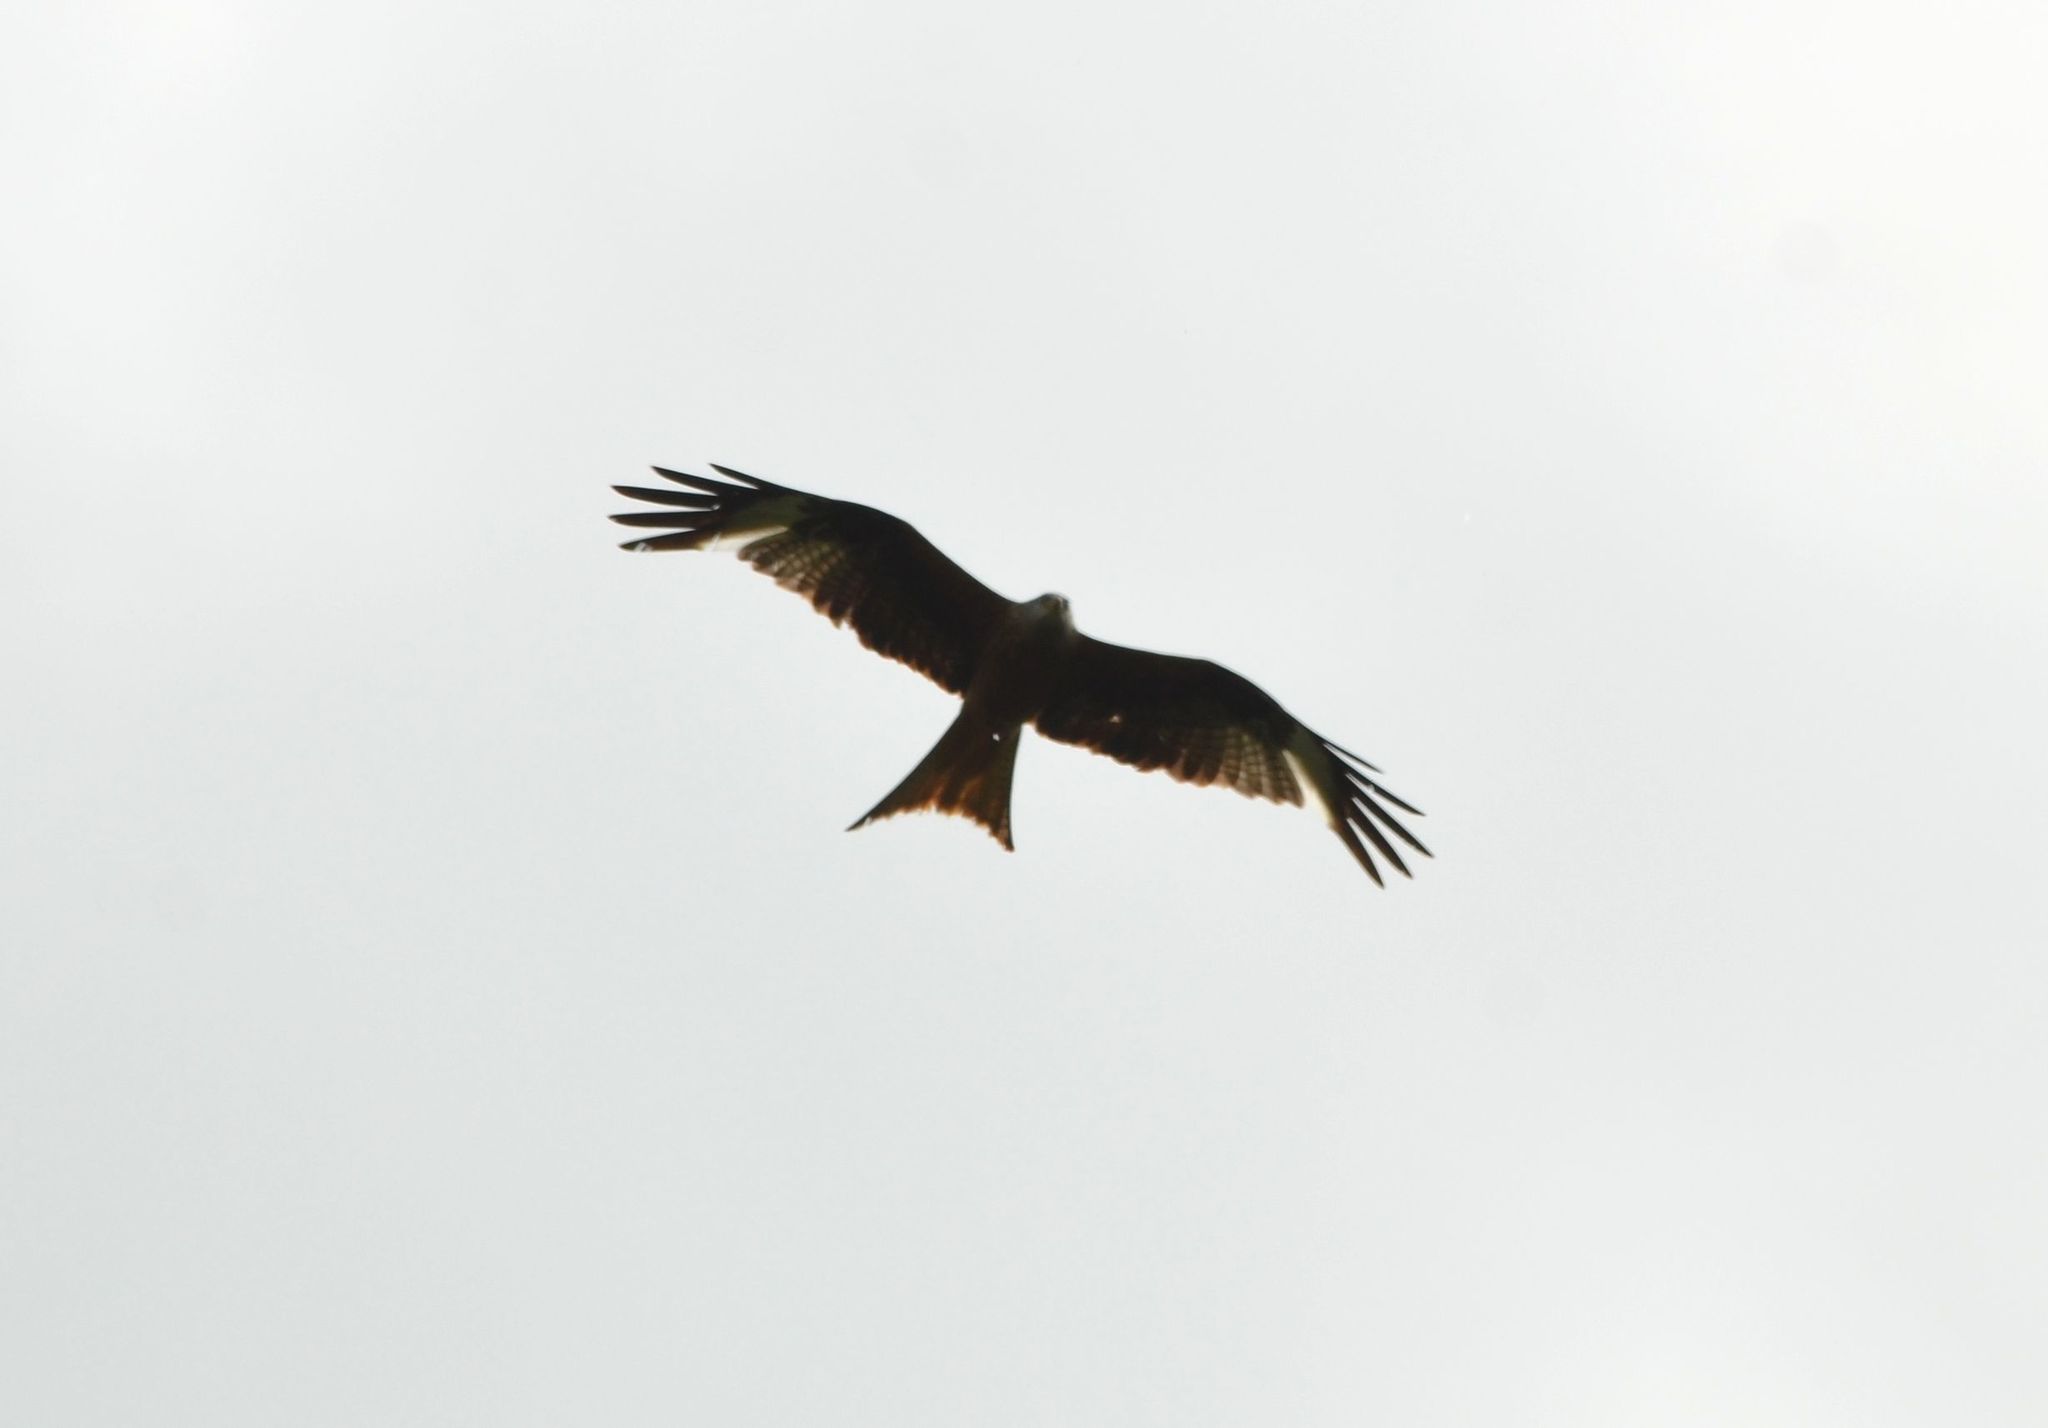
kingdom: Animalia
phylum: Chordata
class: Aves
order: Accipitriformes
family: Accipitridae
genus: Milvus
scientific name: Milvus milvus
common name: Red kite
